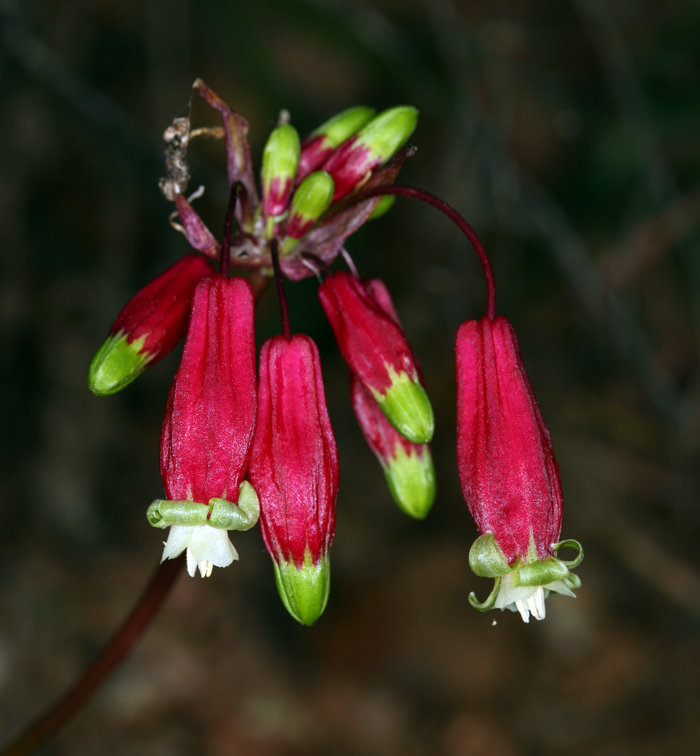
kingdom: Plantae
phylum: Tracheophyta
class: Liliopsida
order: Asparagales
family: Asparagaceae
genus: Dichelostemma
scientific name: Dichelostemma ida-maia
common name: Firecracker-flower
